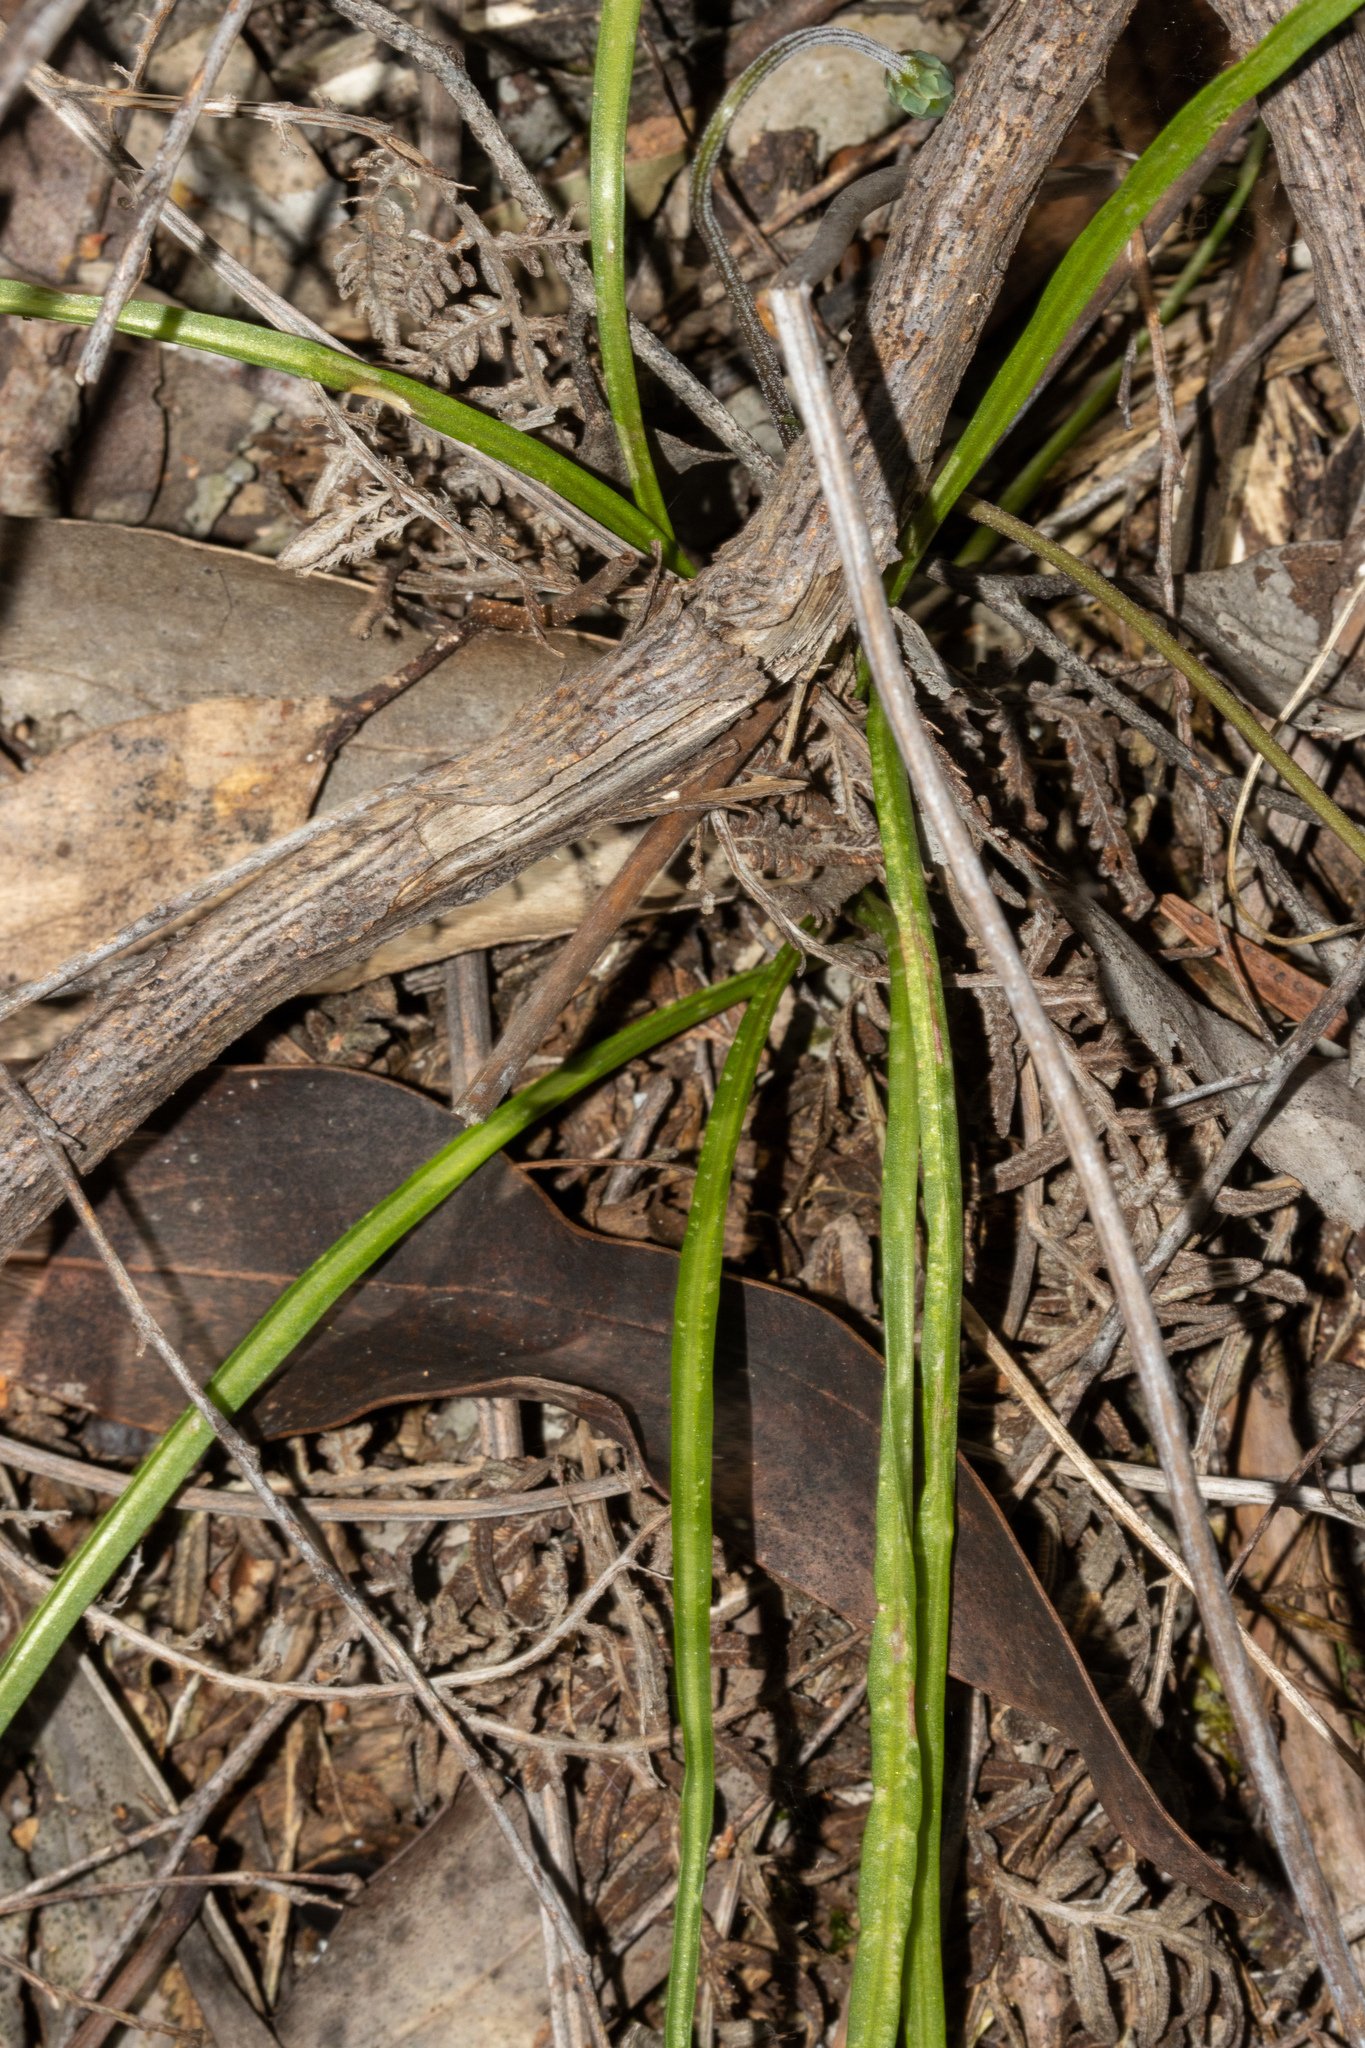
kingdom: Plantae
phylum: Tracheophyta
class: Magnoliopsida
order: Asterales
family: Asteraceae
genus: Microseris
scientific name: Microseris lanceolata
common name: Yam daisy
